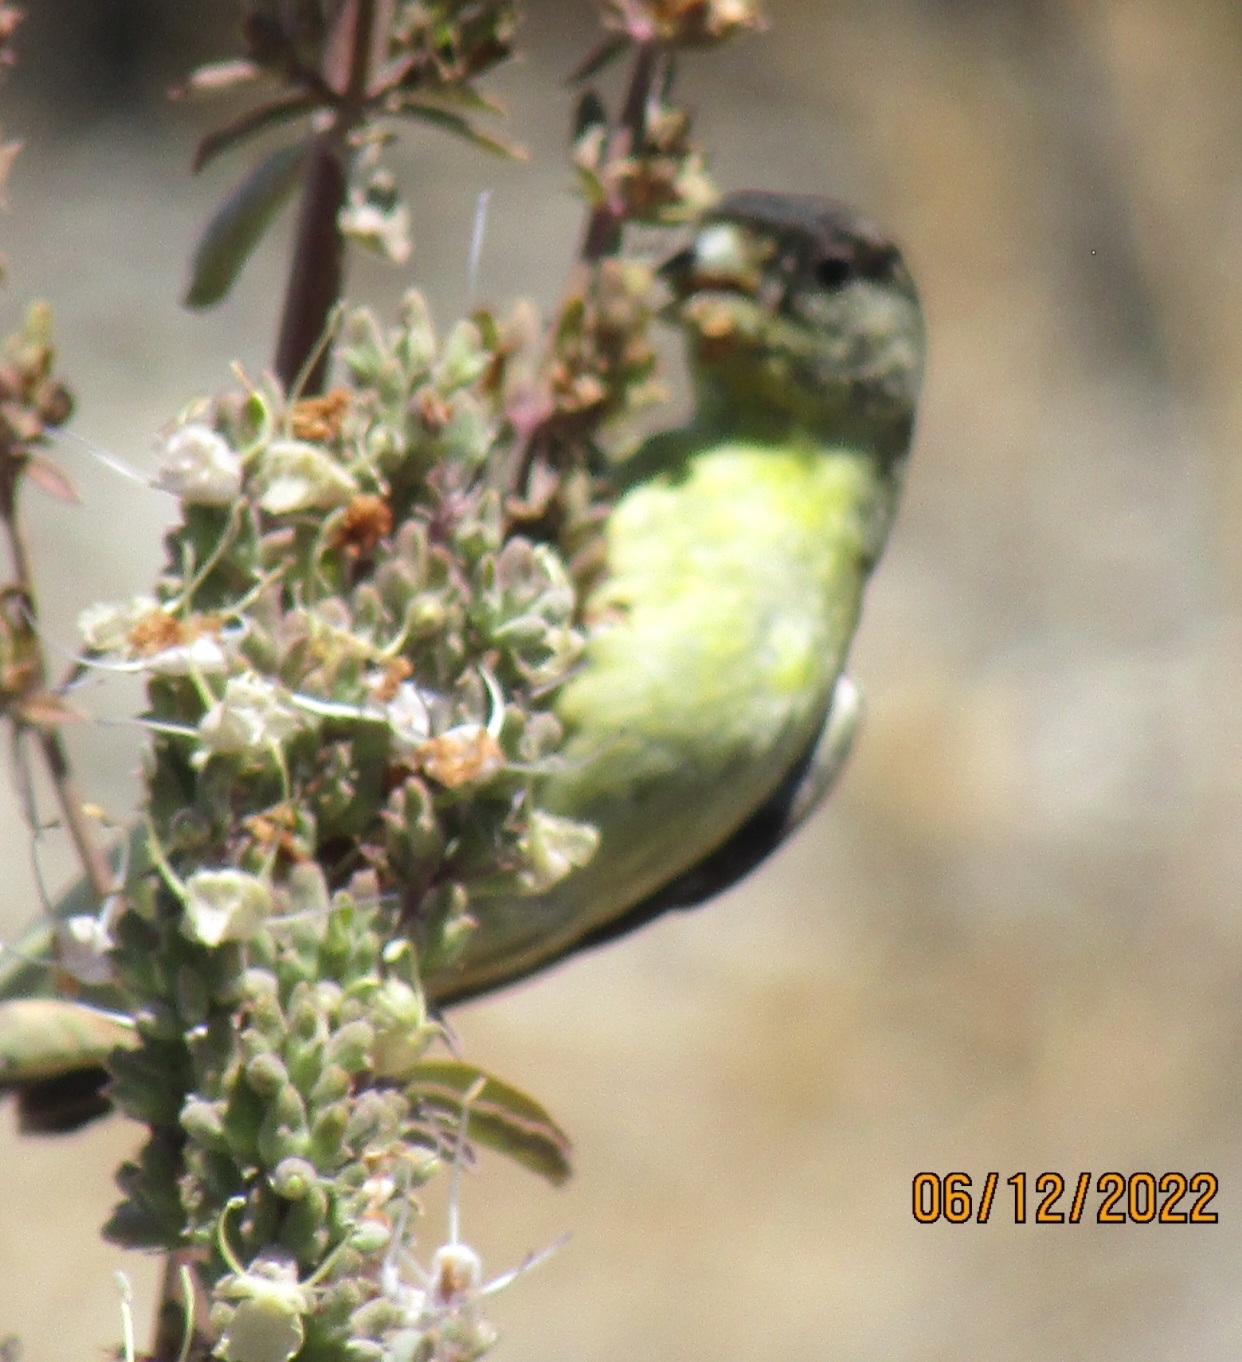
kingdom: Animalia
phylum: Chordata
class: Aves
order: Passeriformes
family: Fringillidae
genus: Spinus
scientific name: Spinus psaltria
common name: Lesser goldfinch
